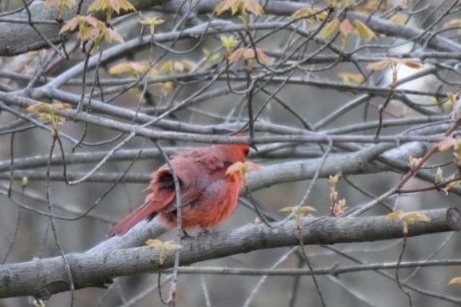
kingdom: Animalia
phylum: Chordata
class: Aves
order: Passeriformes
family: Cardinalidae
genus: Cardinalis
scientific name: Cardinalis cardinalis
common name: Northern cardinal
